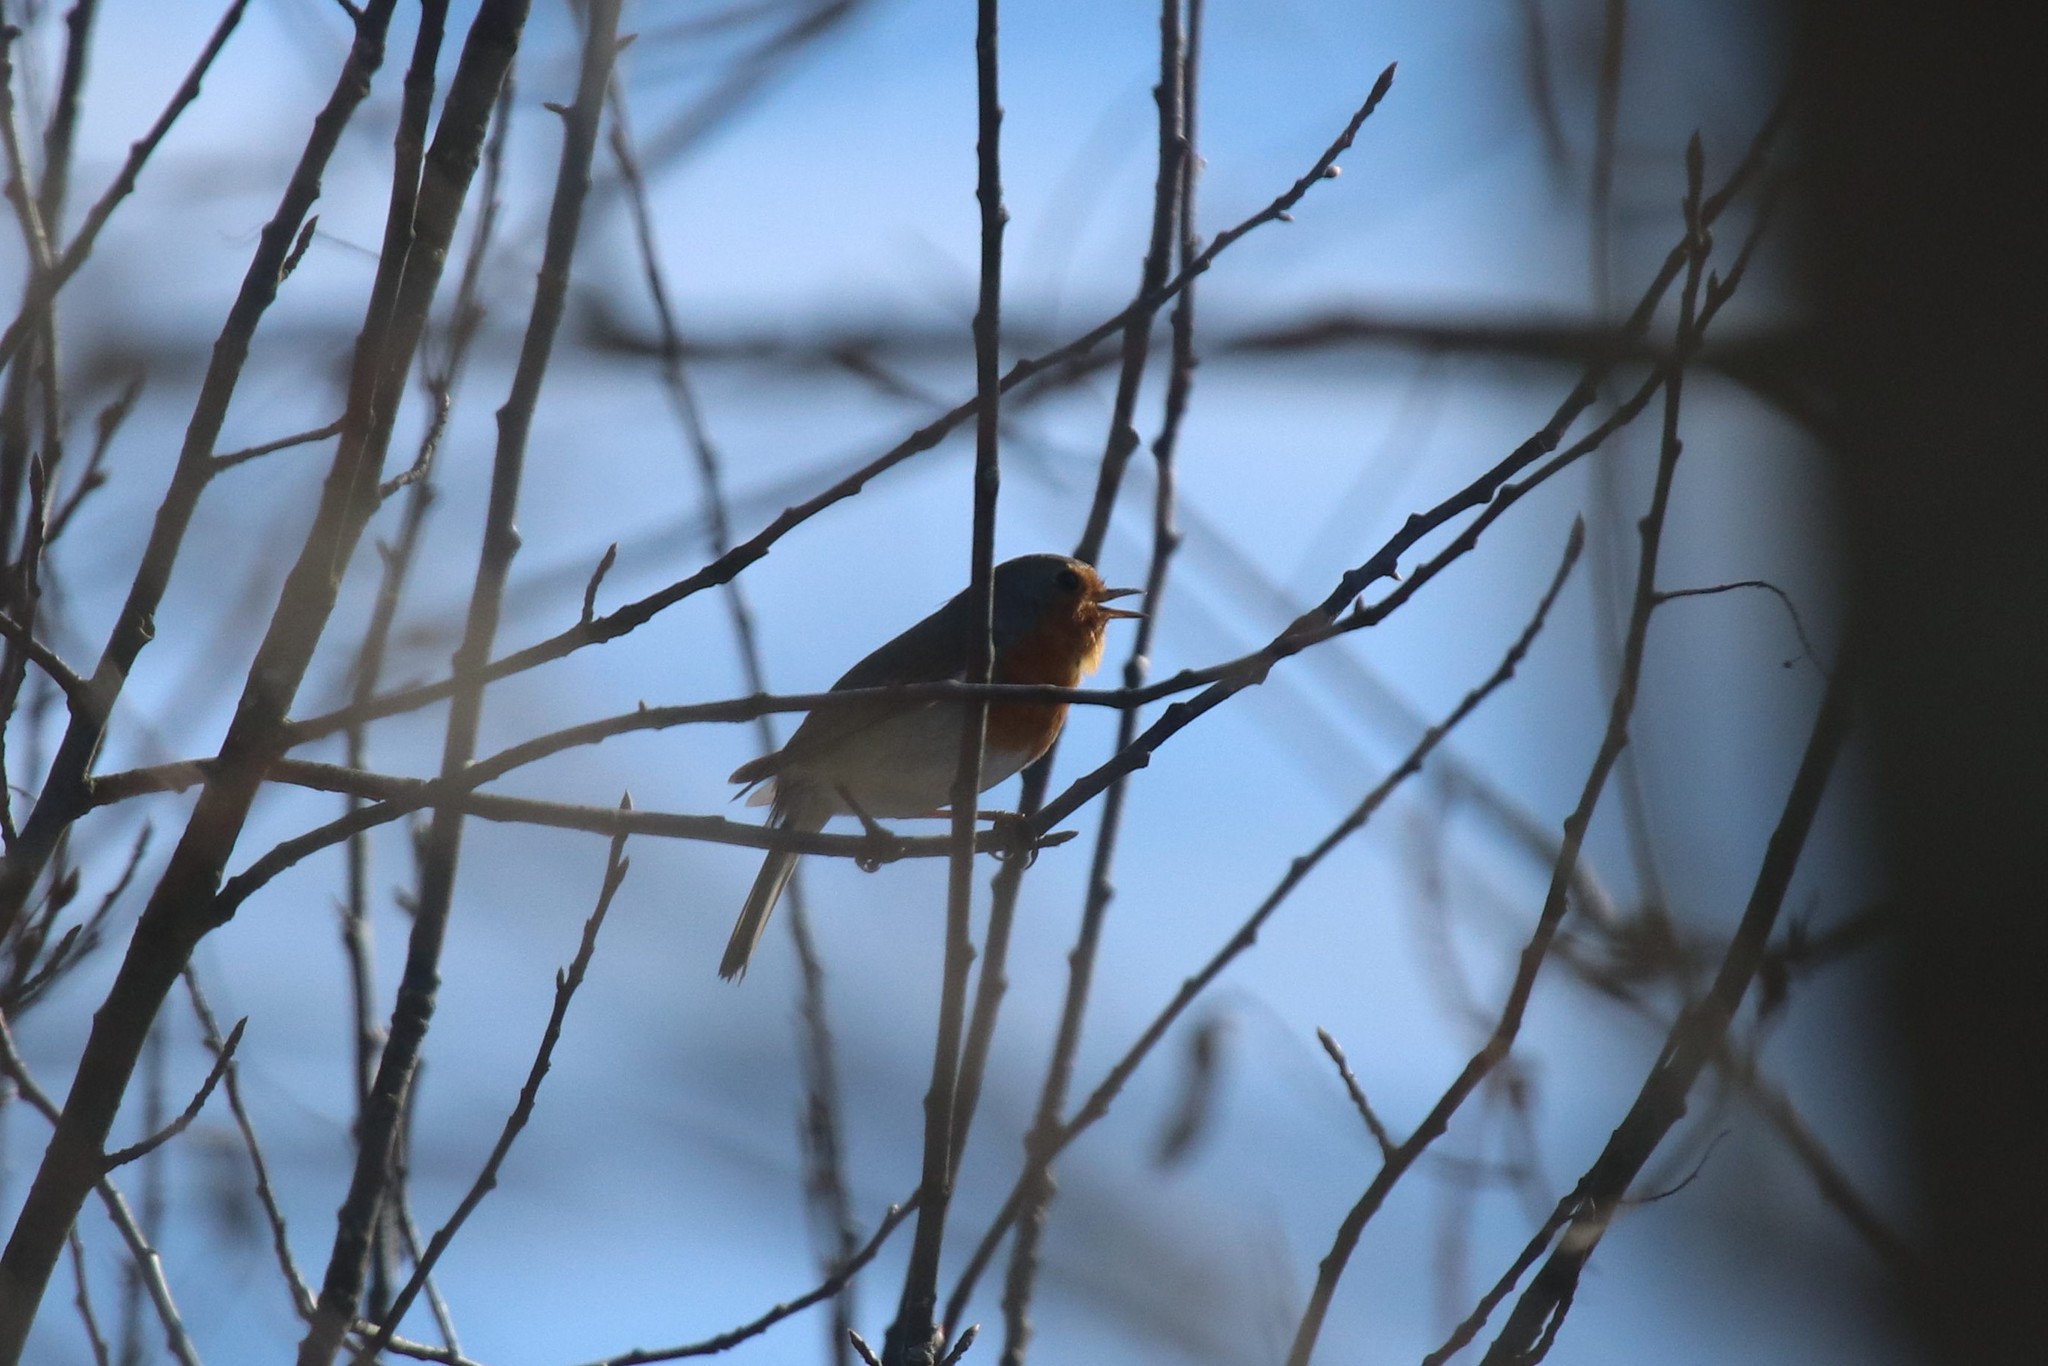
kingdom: Animalia
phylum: Chordata
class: Aves
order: Passeriformes
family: Muscicapidae
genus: Erithacus
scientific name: Erithacus rubecula
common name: European robin
